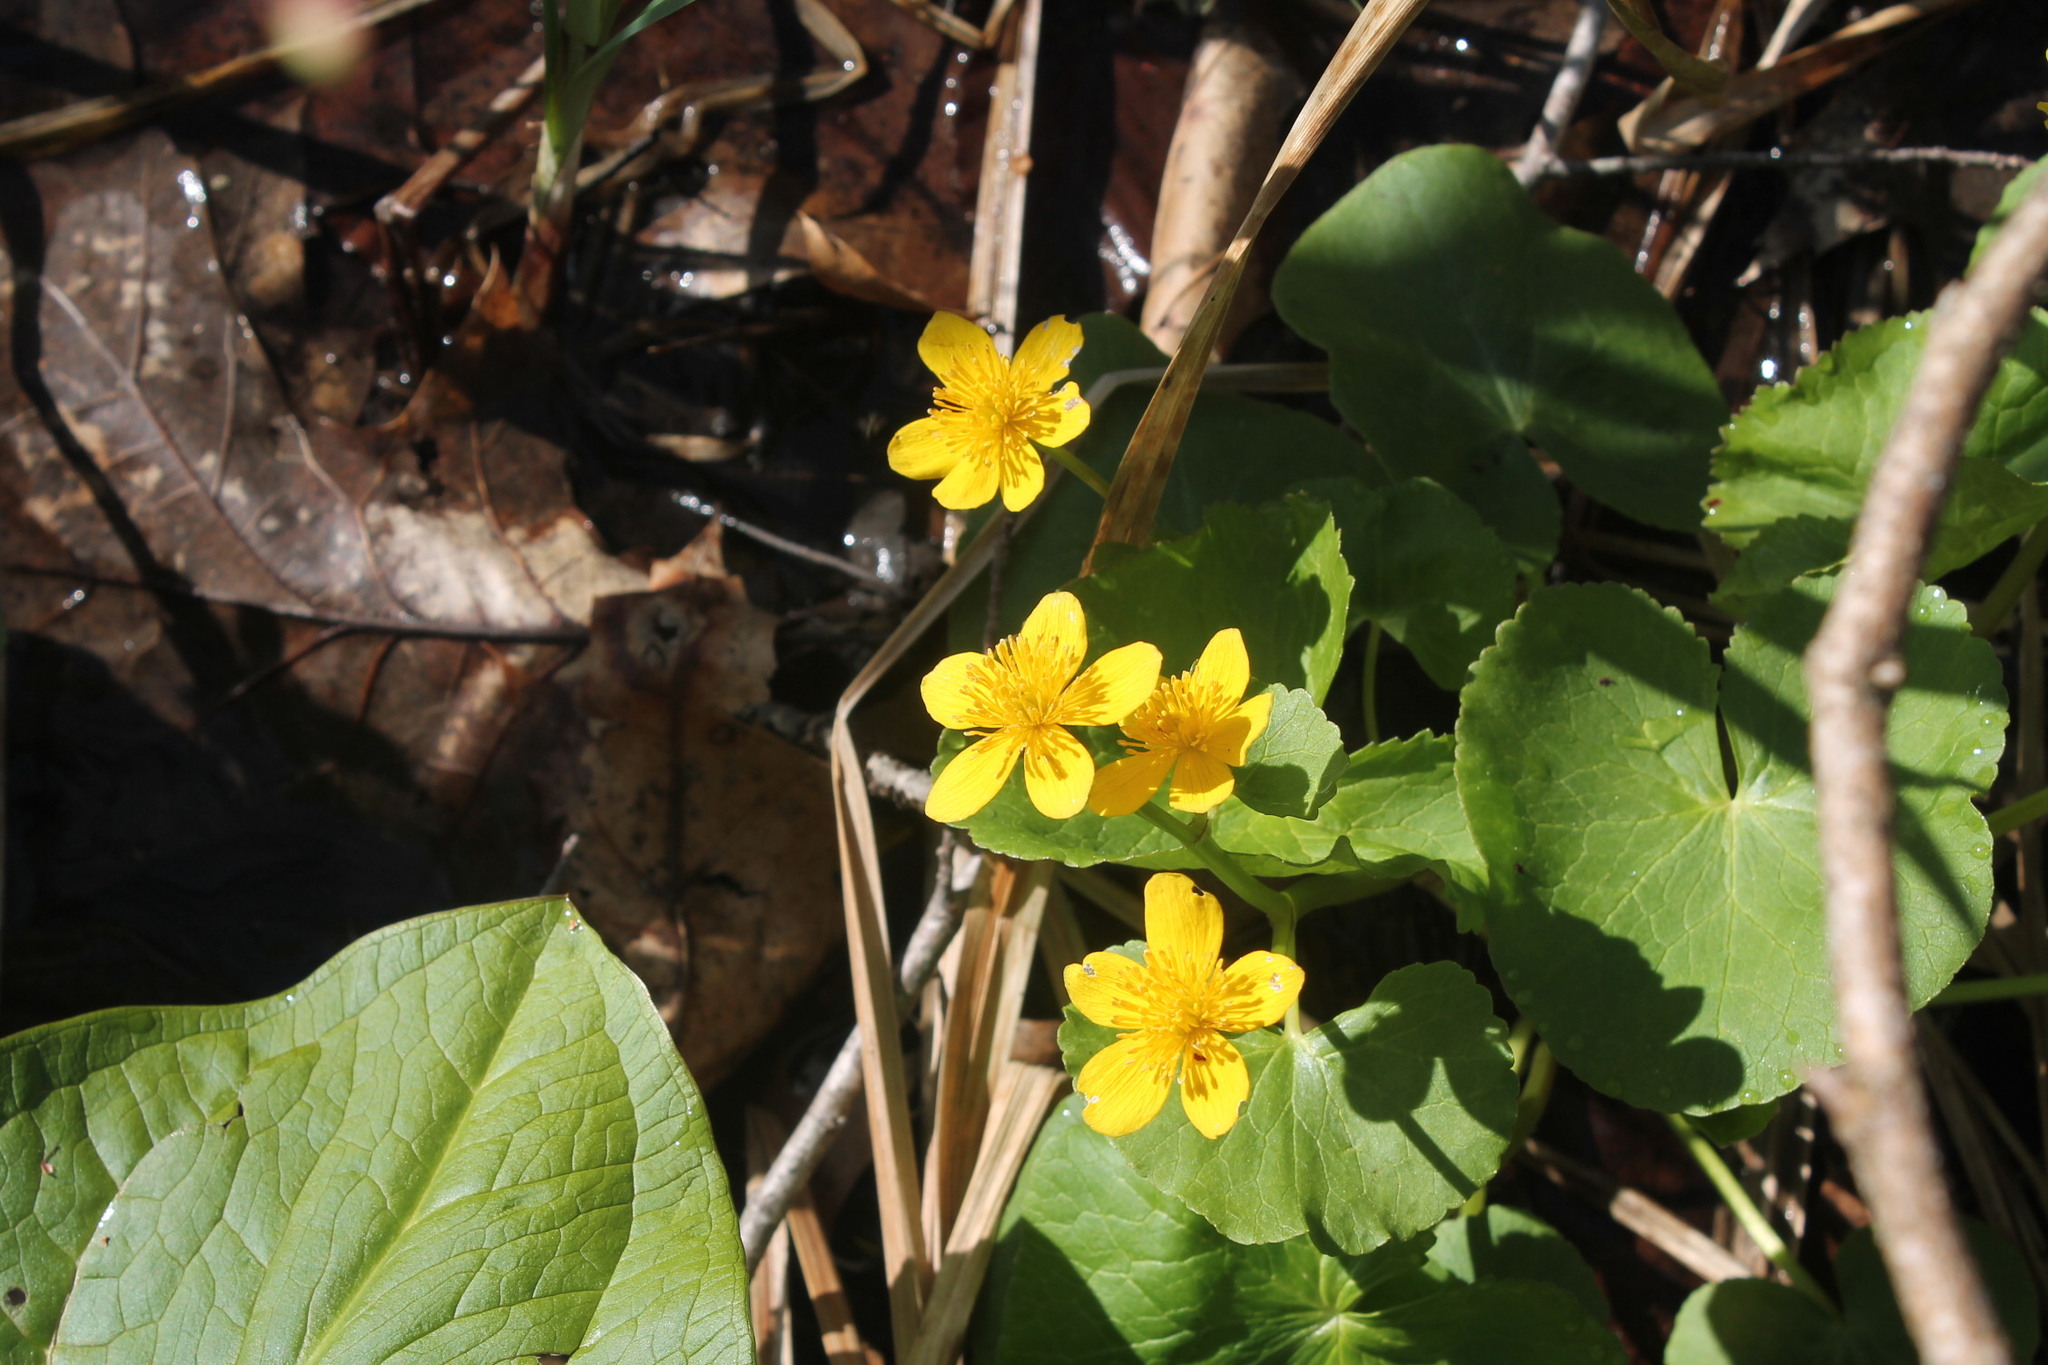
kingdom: Plantae
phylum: Tracheophyta
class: Magnoliopsida
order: Ranunculales
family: Ranunculaceae
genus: Caltha
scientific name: Caltha palustris
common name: Marsh marigold
